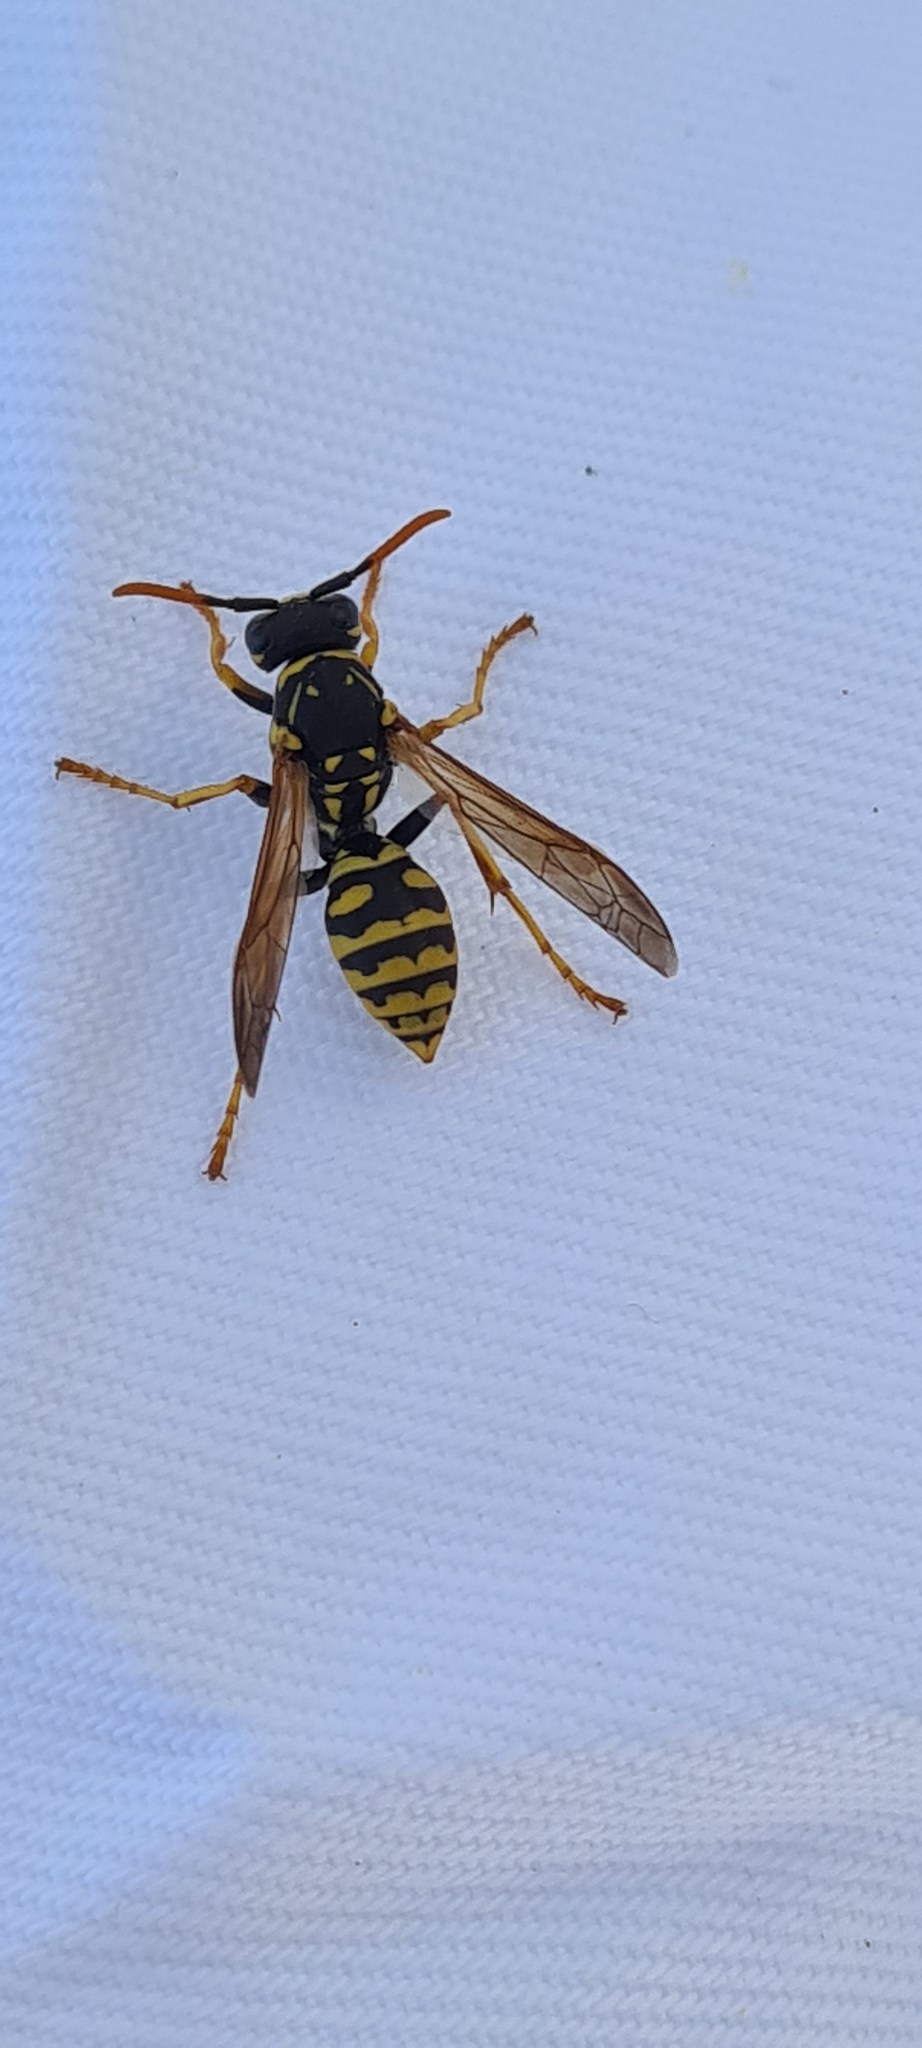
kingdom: Animalia
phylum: Arthropoda
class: Insecta
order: Hymenoptera
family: Eumenidae
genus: Polistes
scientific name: Polistes dominula
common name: Paper wasp
